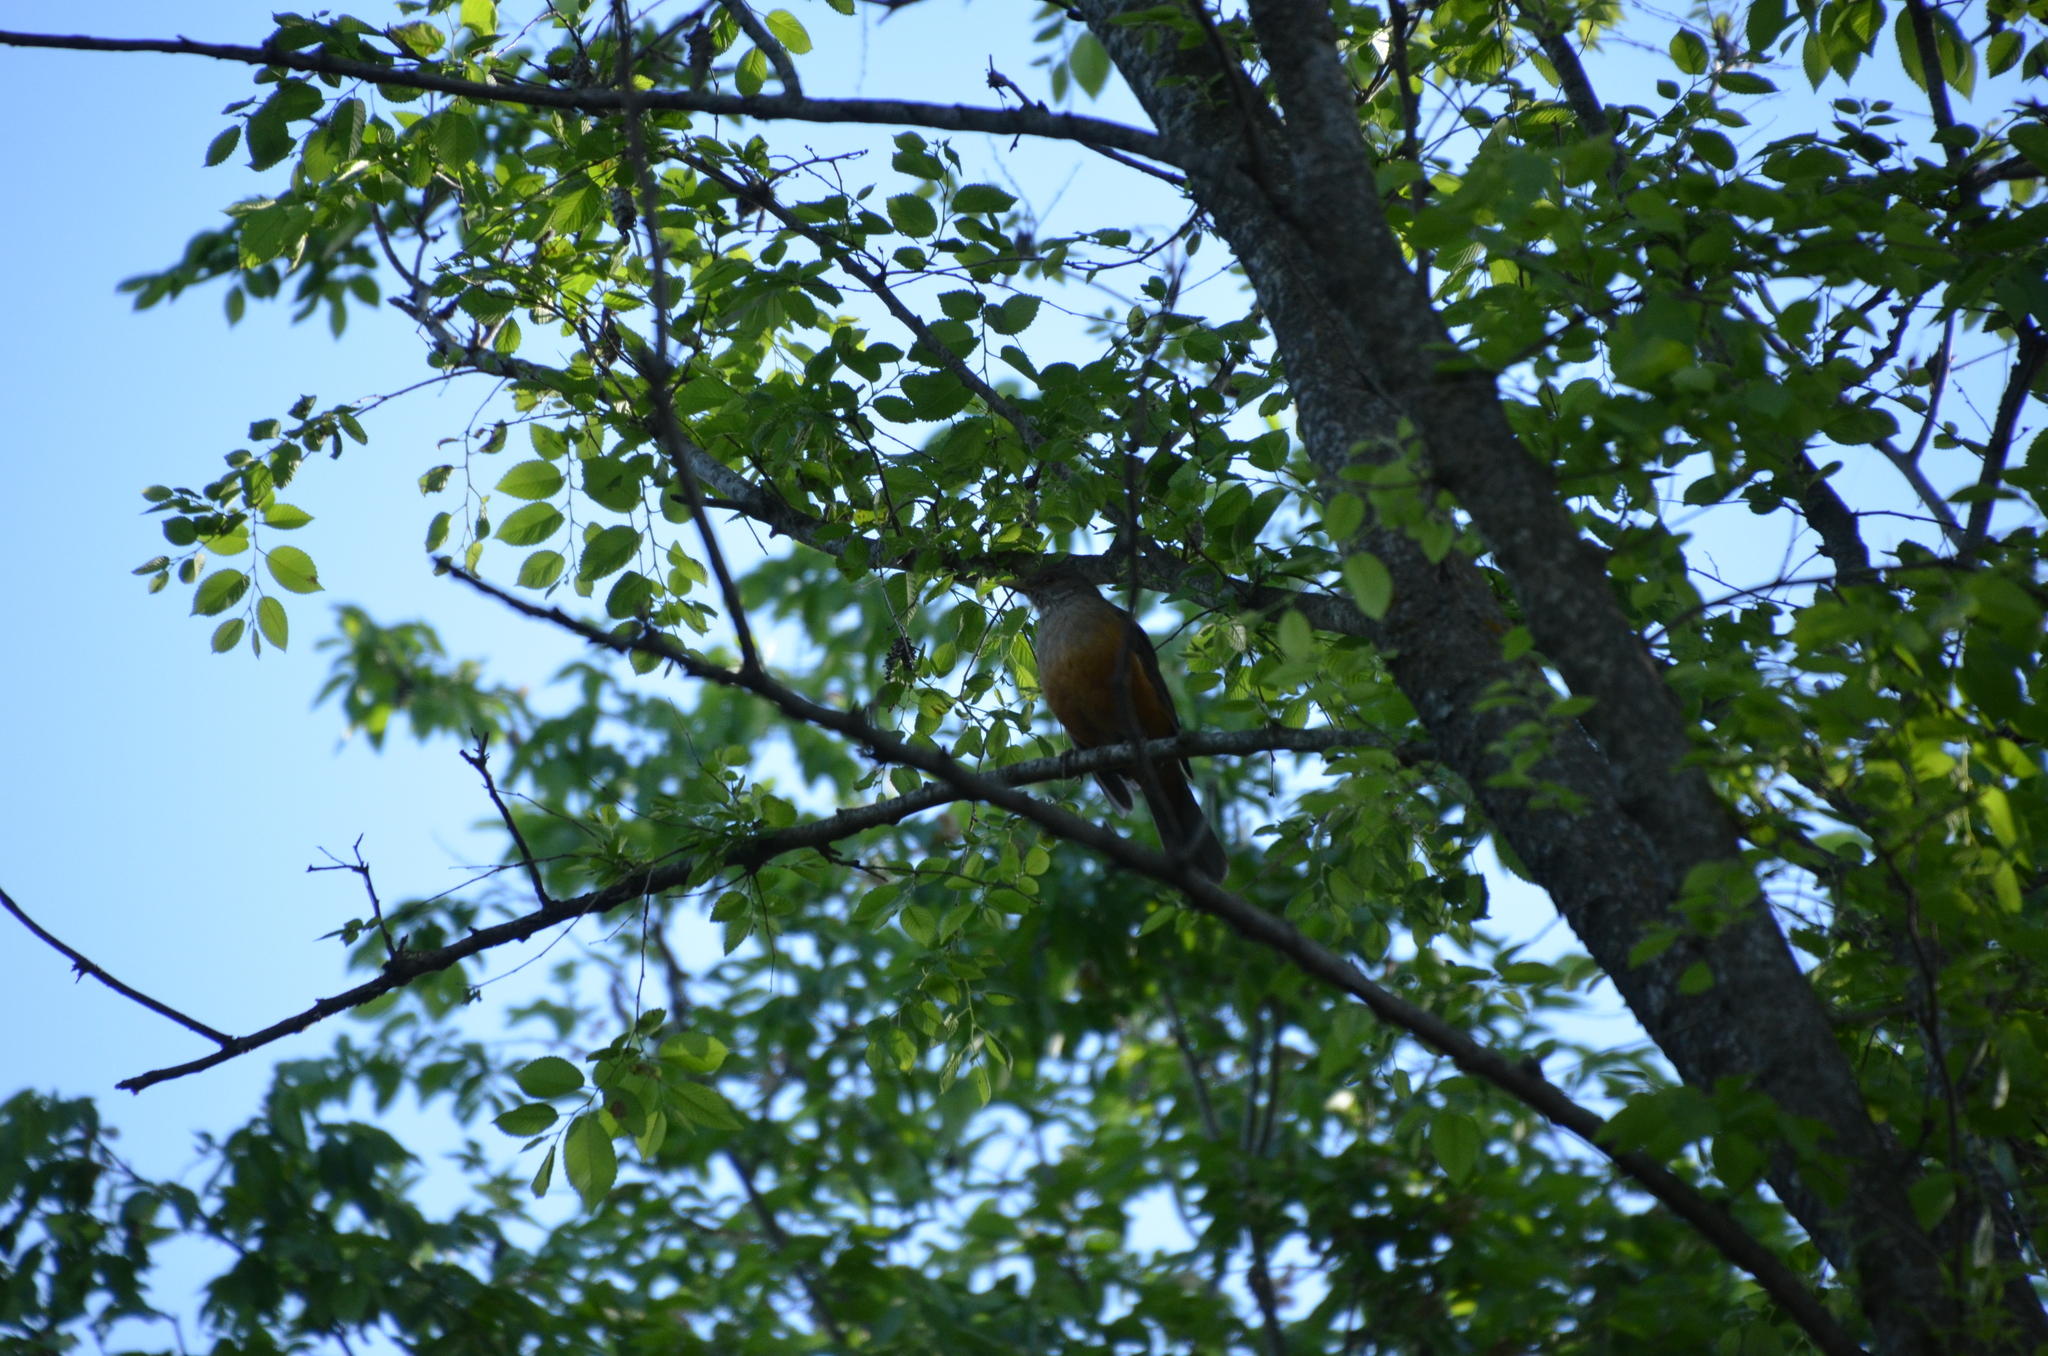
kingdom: Animalia
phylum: Chordata
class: Aves
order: Passeriformes
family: Turdidae
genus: Turdus
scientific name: Turdus rufiventris
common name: Rufous-bellied thrush
